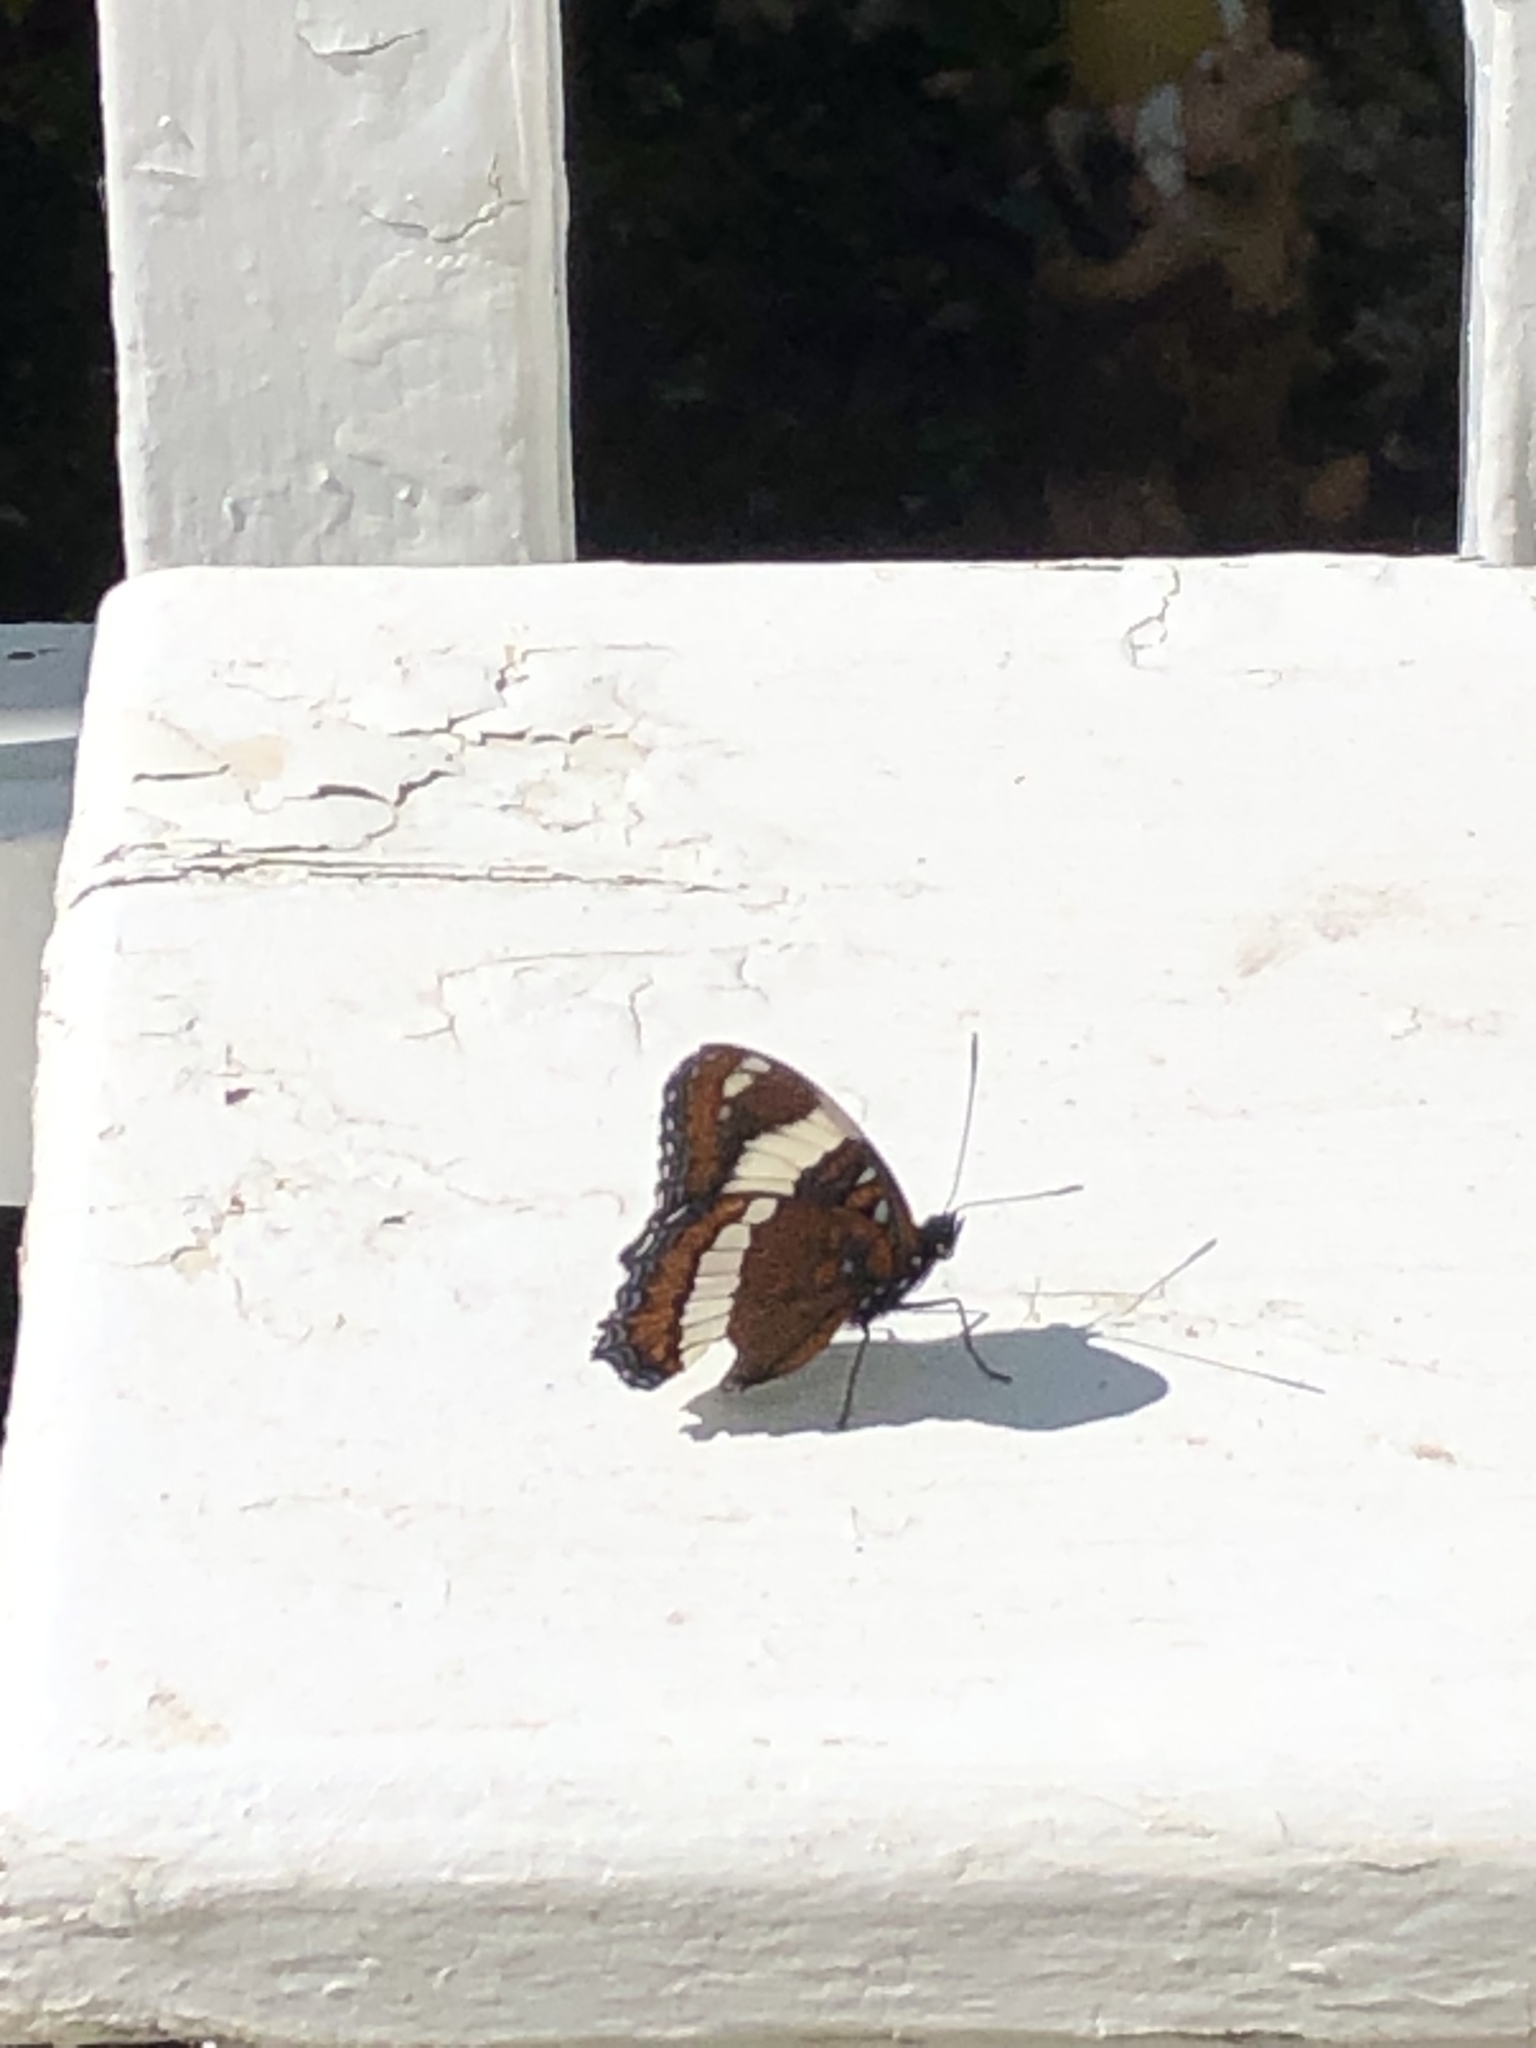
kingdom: Animalia
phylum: Arthropoda
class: Insecta
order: Lepidoptera
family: Nymphalidae
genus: Limenitis
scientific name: Limenitis arthemis
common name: Red-spotted admiral
